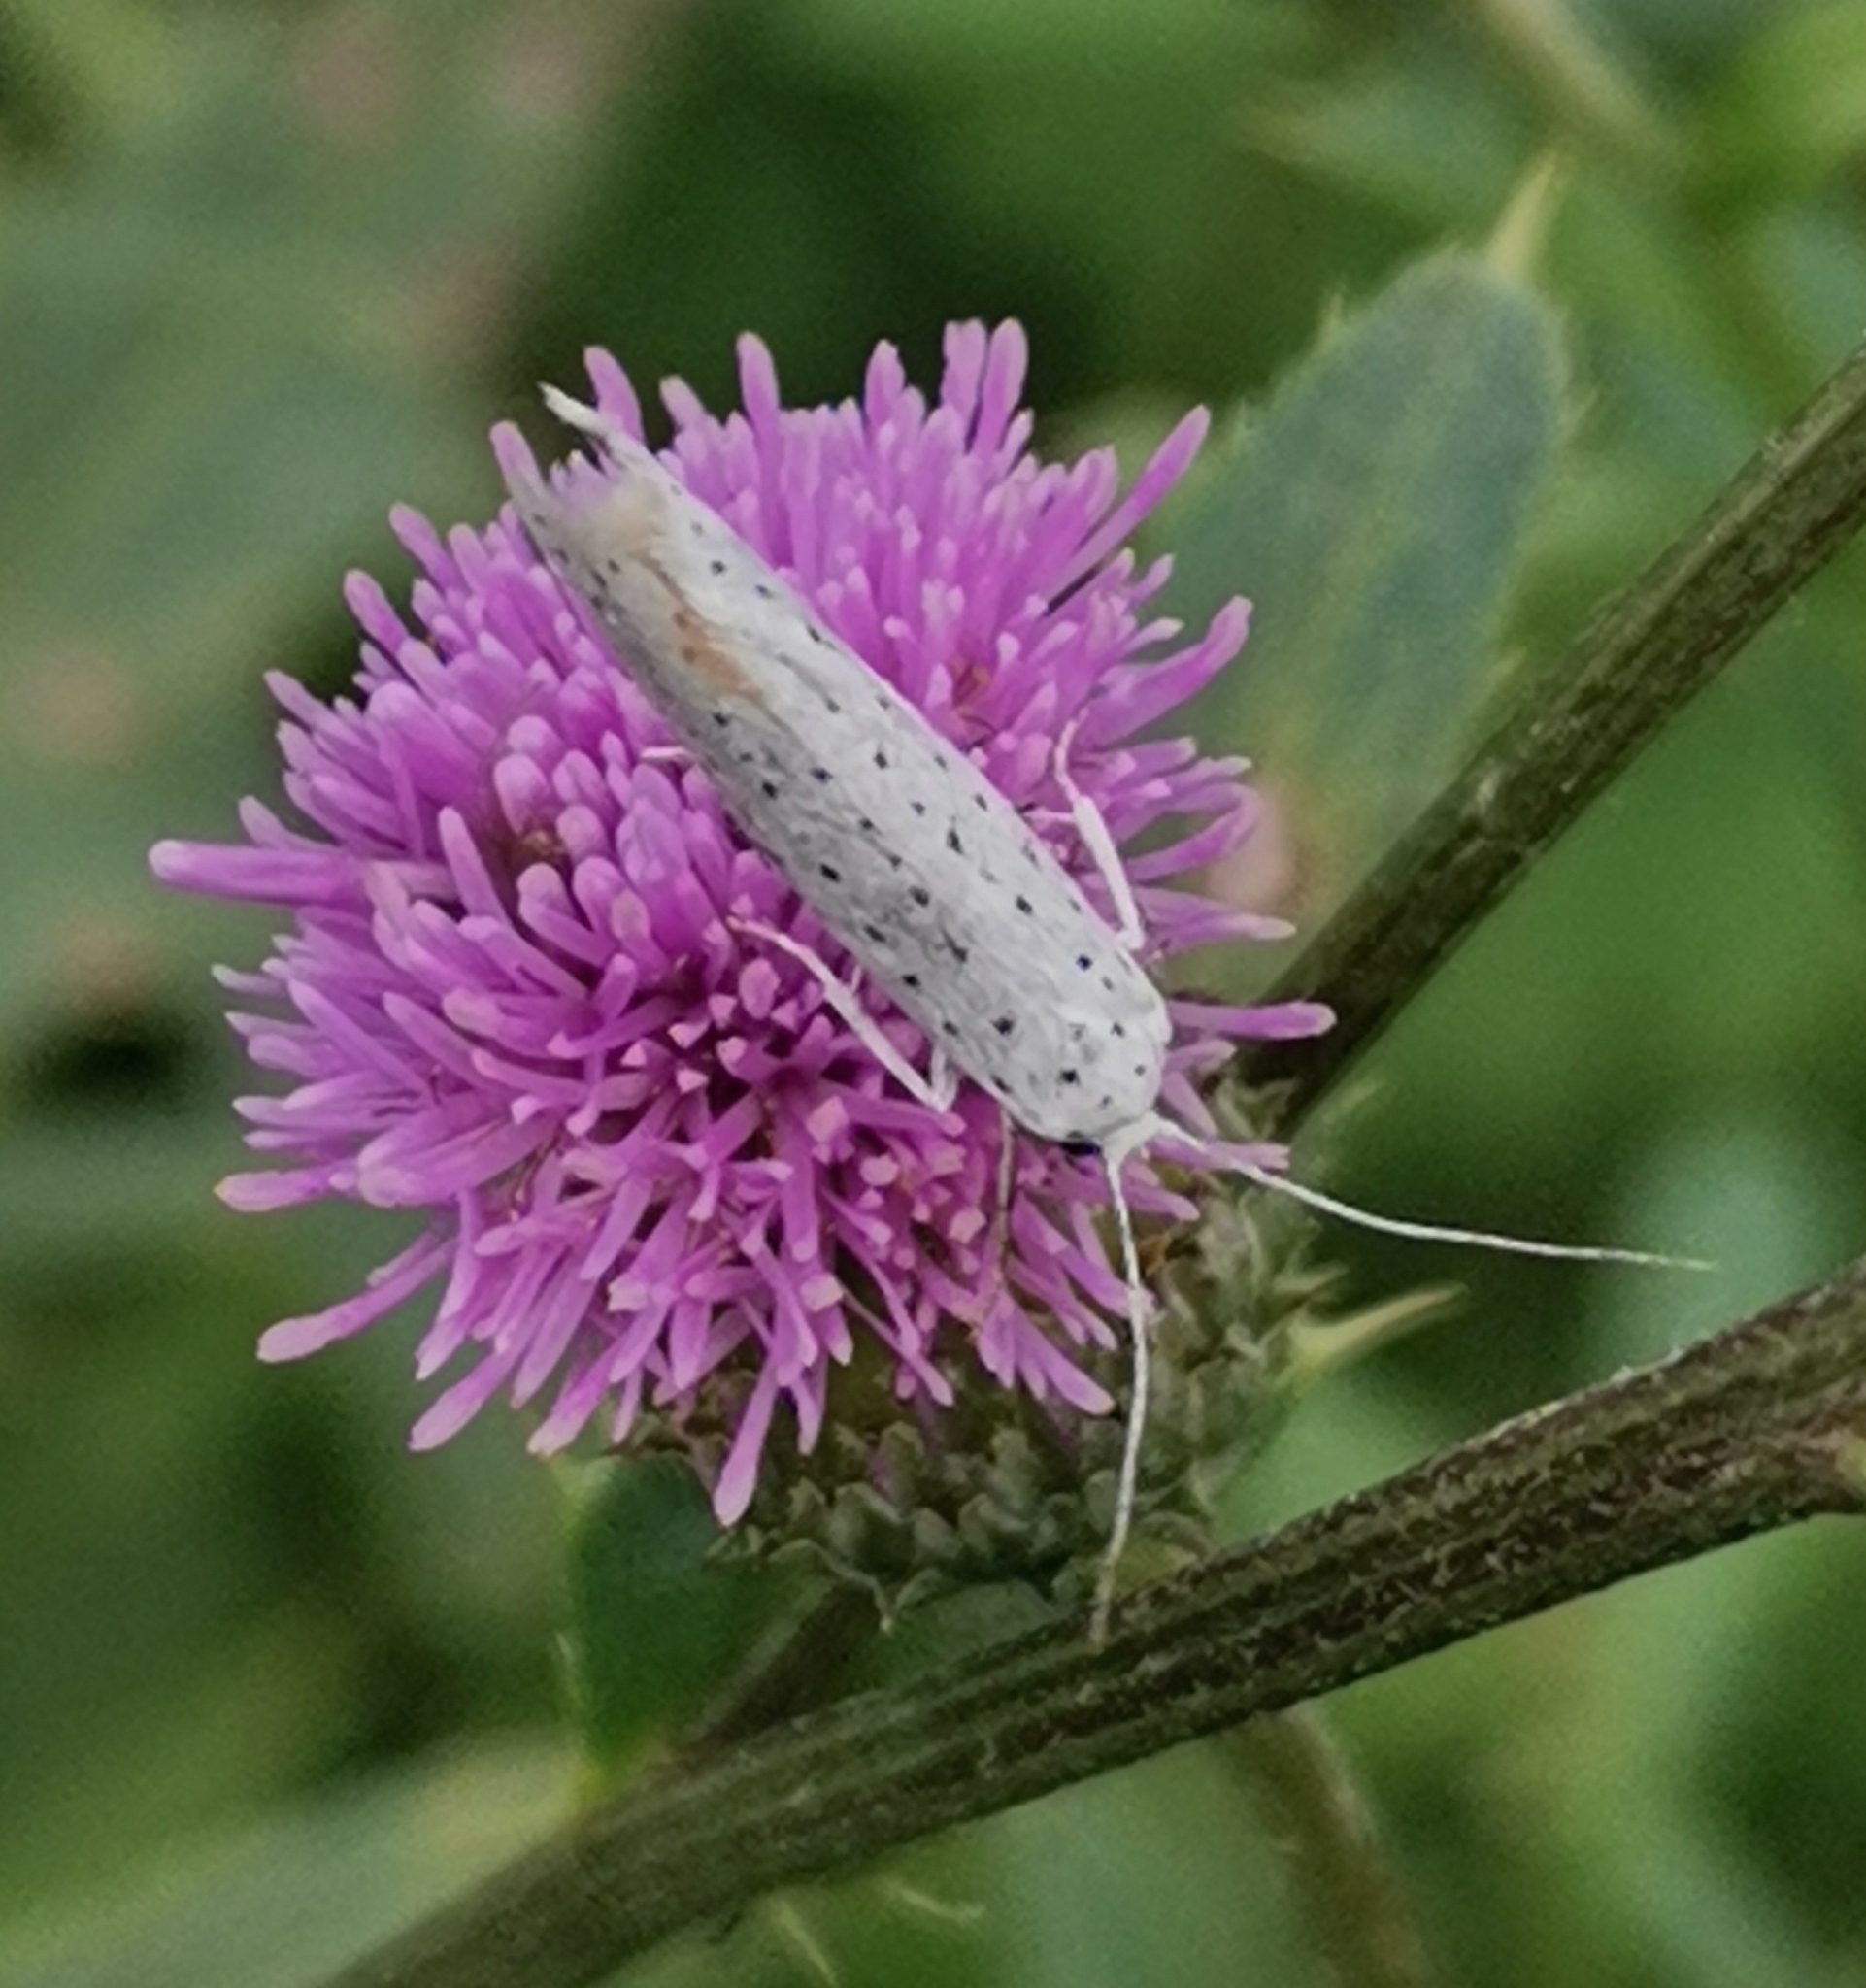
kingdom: Animalia
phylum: Arthropoda
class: Insecta
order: Lepidoptera
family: Yponomeutidae
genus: Yponomeuta
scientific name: Yponomeuta evonymella
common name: Bird-cherry ermine
